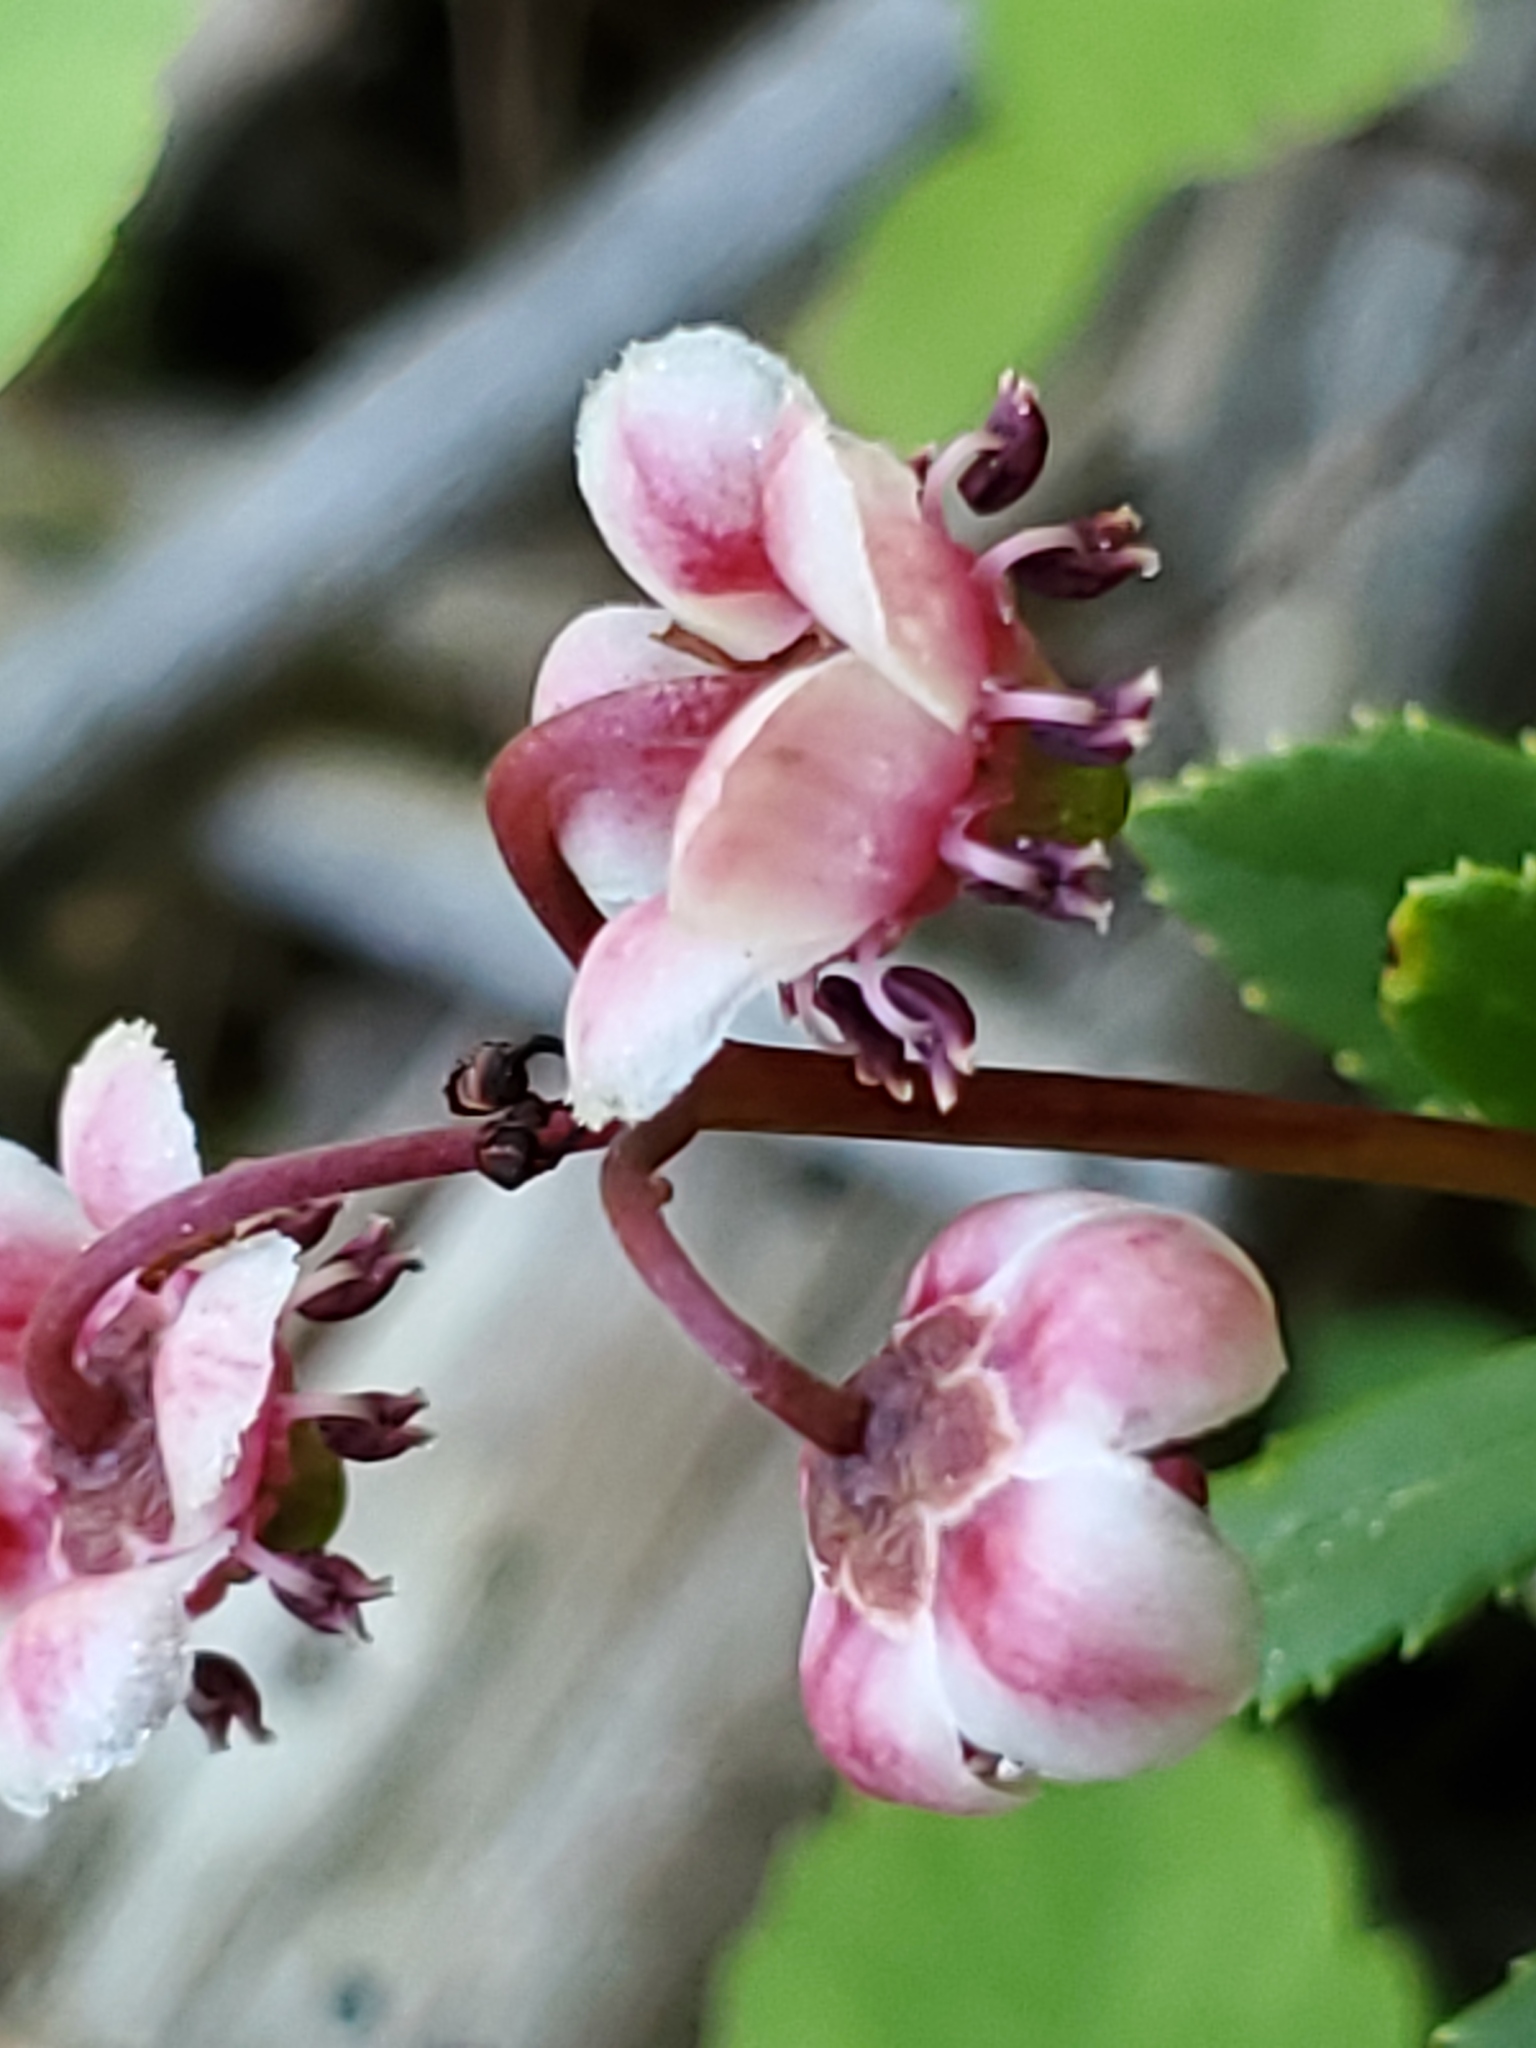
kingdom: Plantae
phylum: Tracheophyta
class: Magnoliopsida
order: Ericales
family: Ericaceae
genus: Chimaphila
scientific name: Chimaphila umbellata
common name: Pipsissewa
